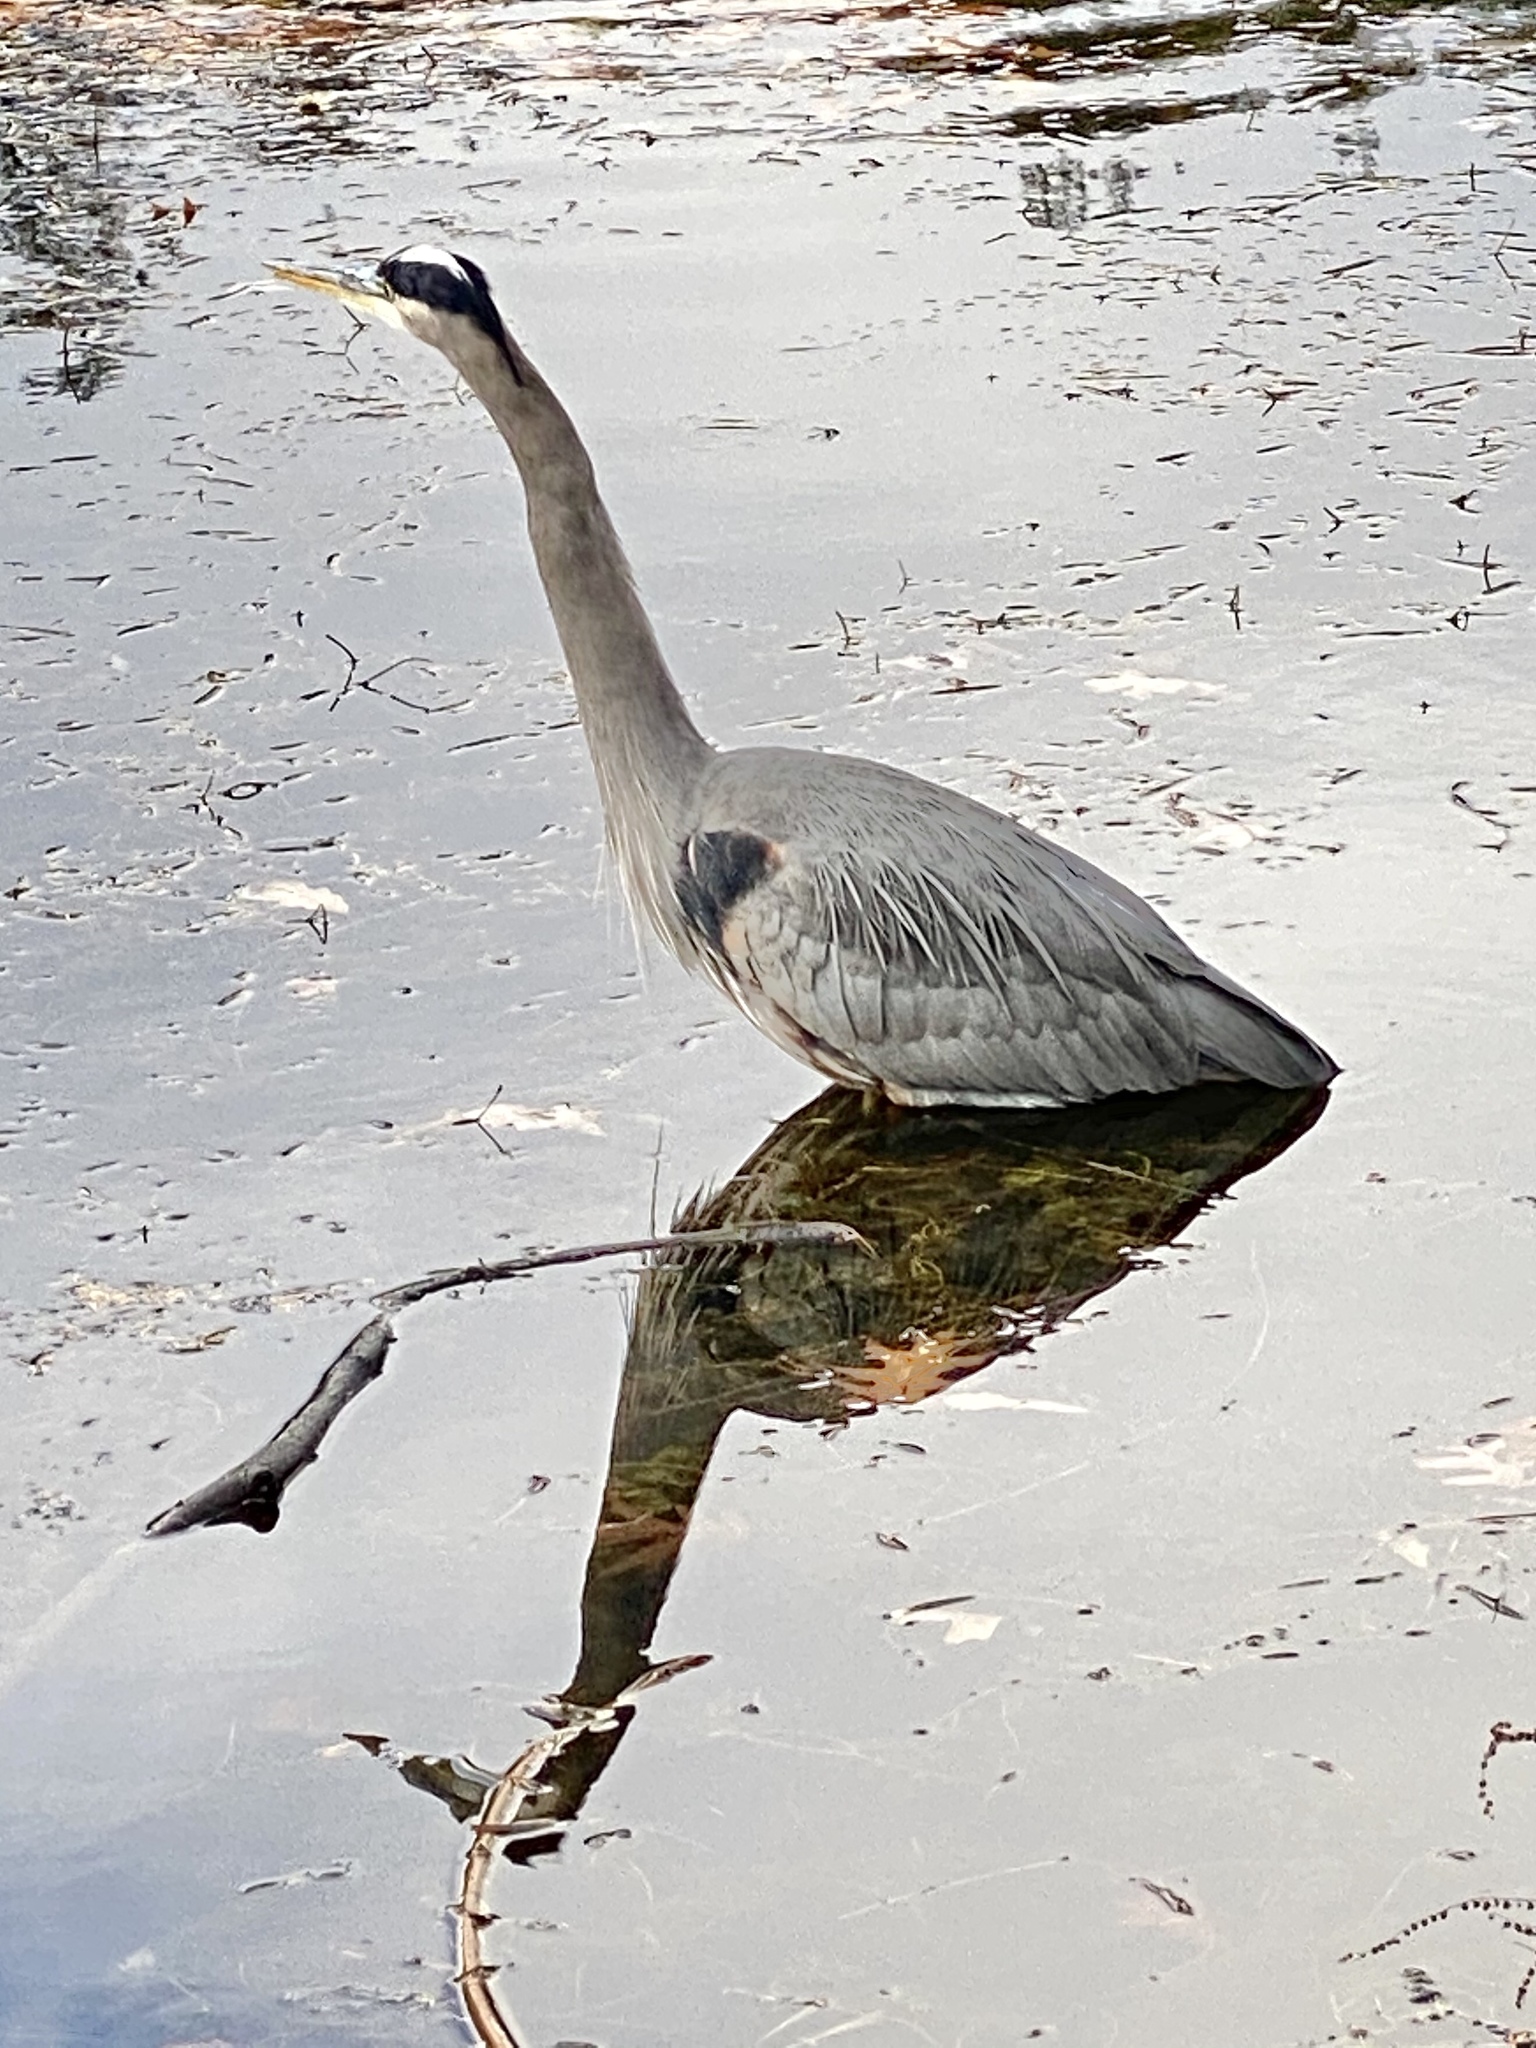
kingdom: Animalia
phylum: Chordata
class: Aves
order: Pelecaniformes
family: Ardeidae
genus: Ardea
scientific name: Ardea herodias
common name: Great blue heron
